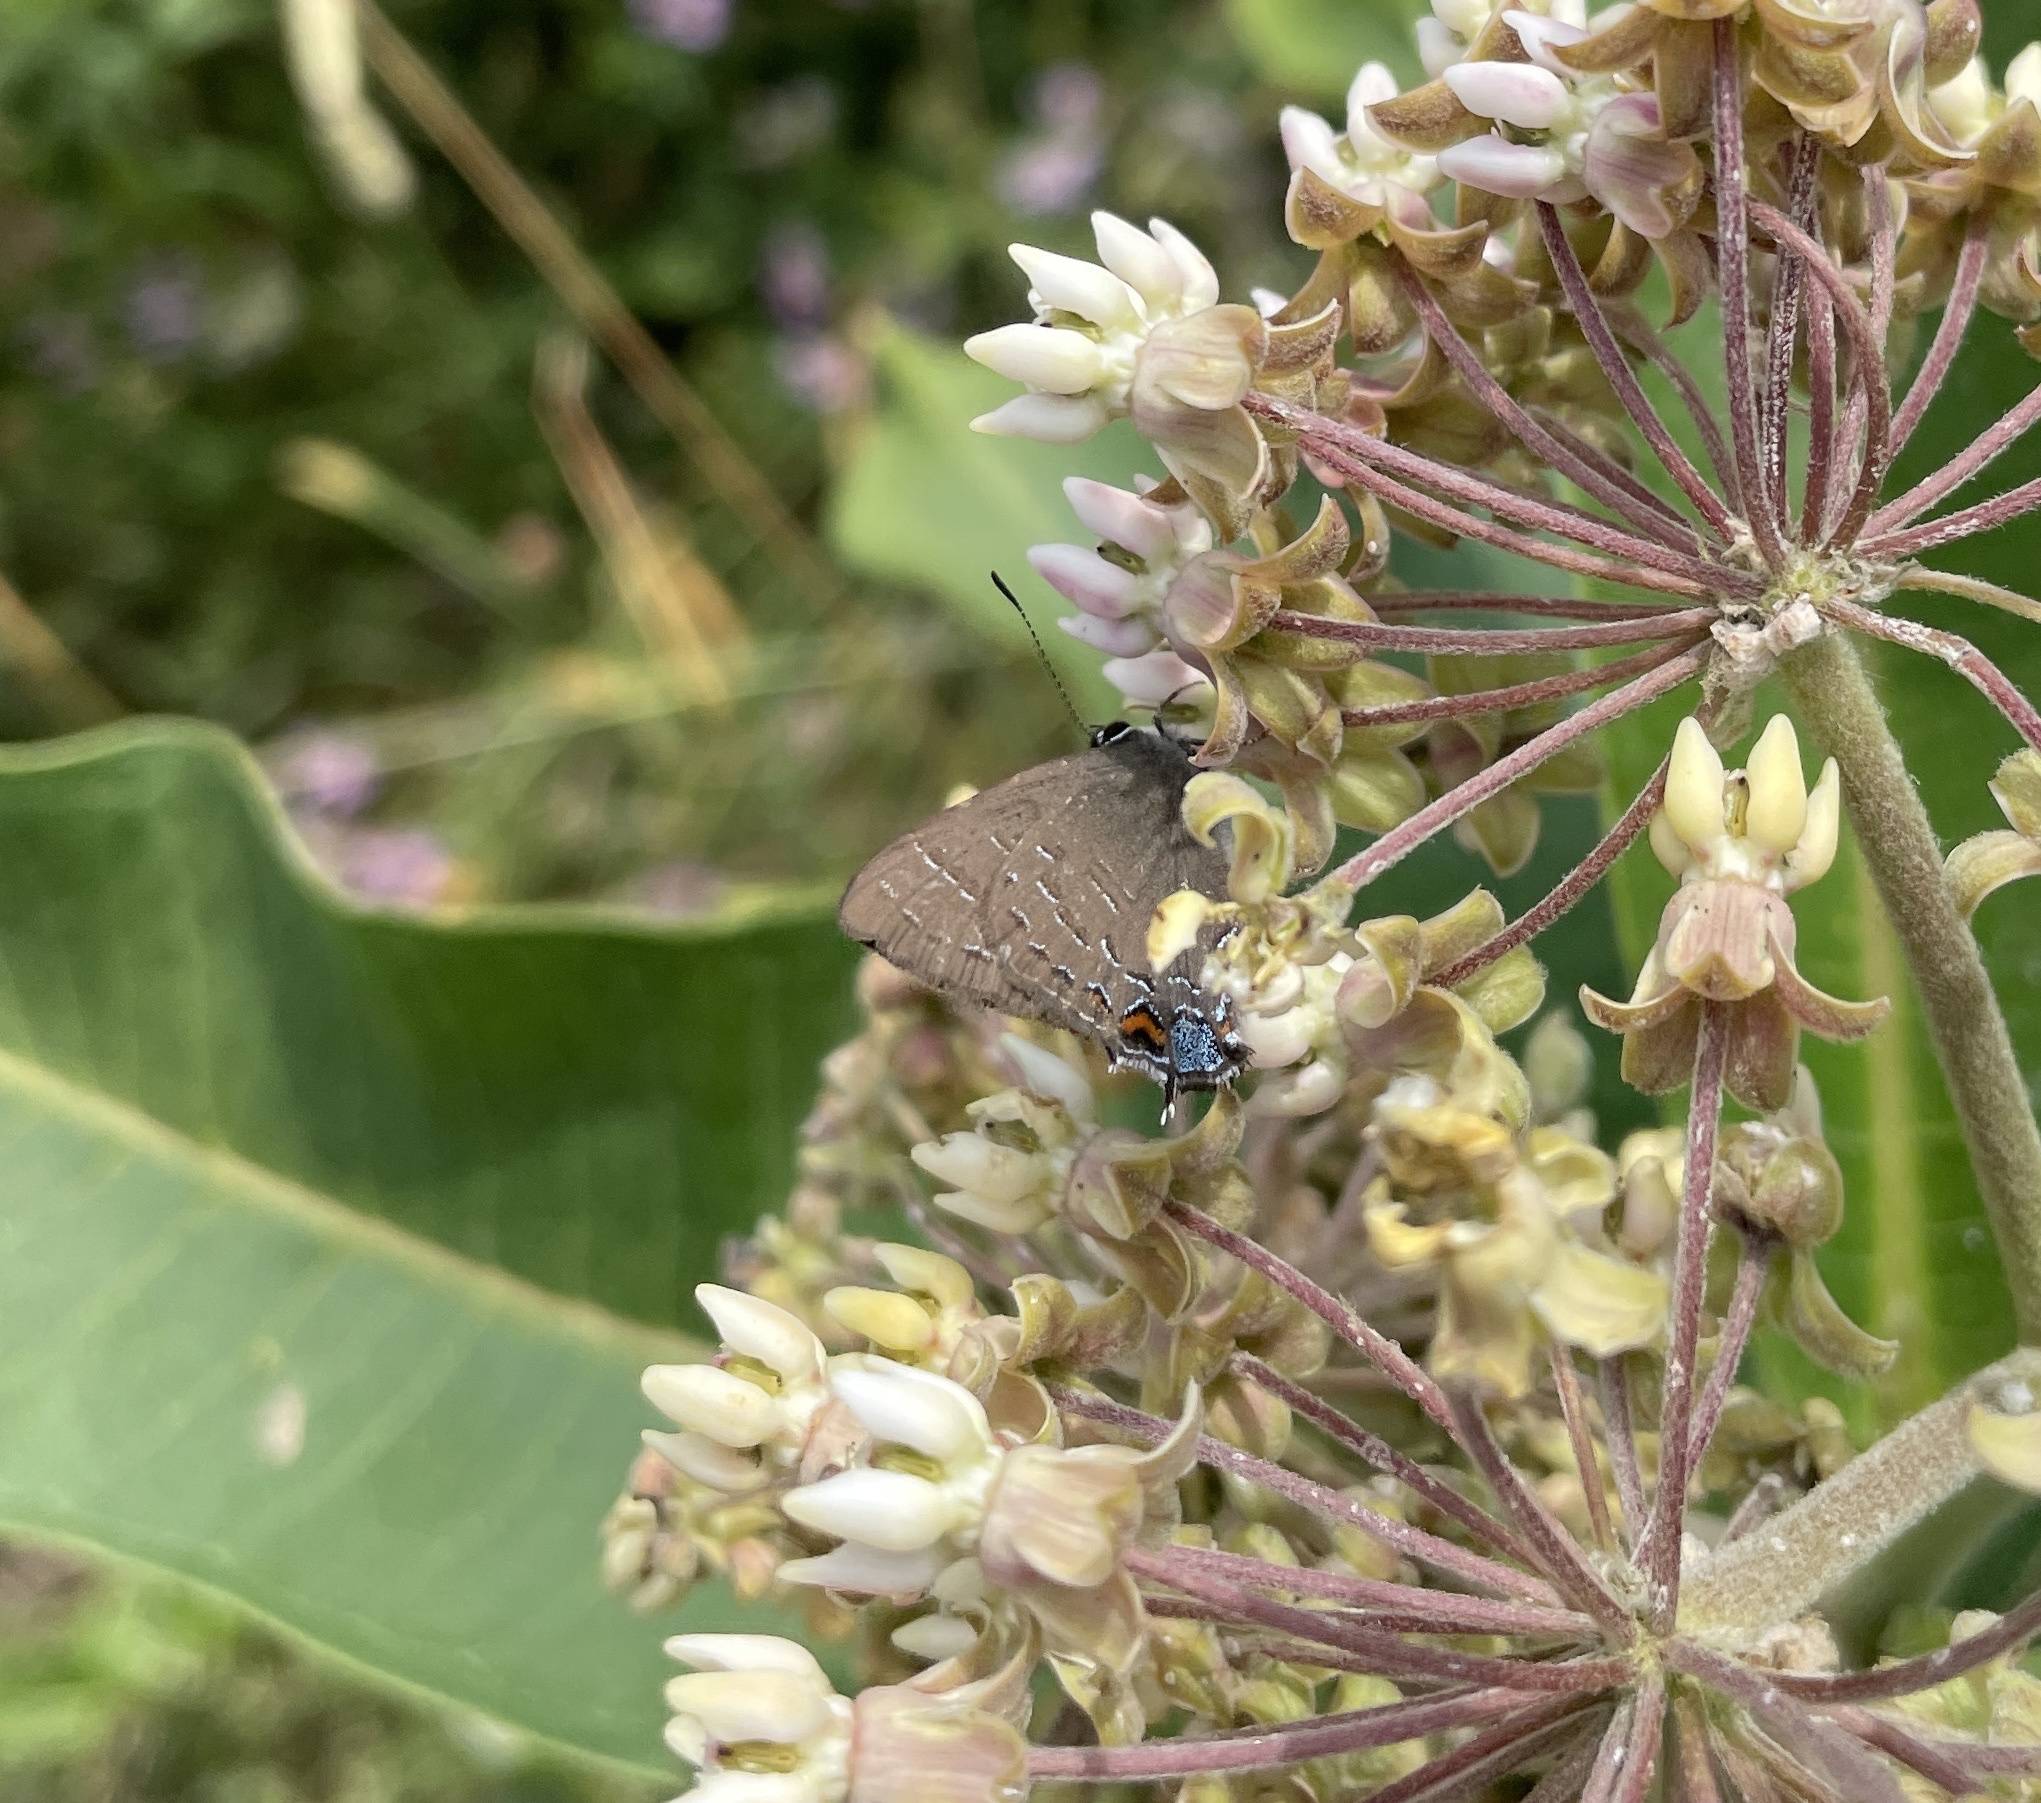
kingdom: Animalia
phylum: Arthropoda
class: Insecta
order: Lepidoptera
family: Lycaenidae
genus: Satyrium
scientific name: Satyrium calanus
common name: Banded hairstreak
